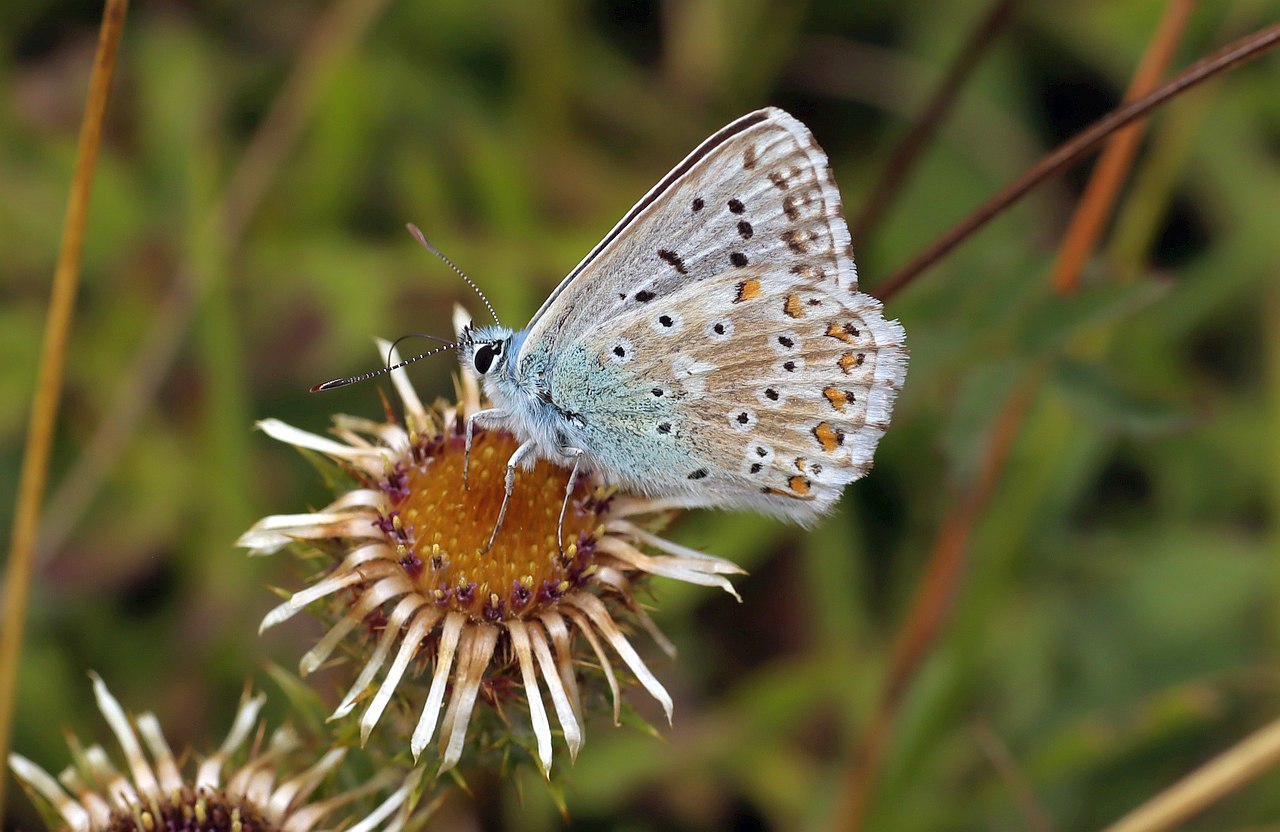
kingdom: Animalia
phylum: Arthropoda
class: Insecta
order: Lepidoptera
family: Lycaenidae
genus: Lysandra
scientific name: Lysandra coridon
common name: Chalkhill blue
